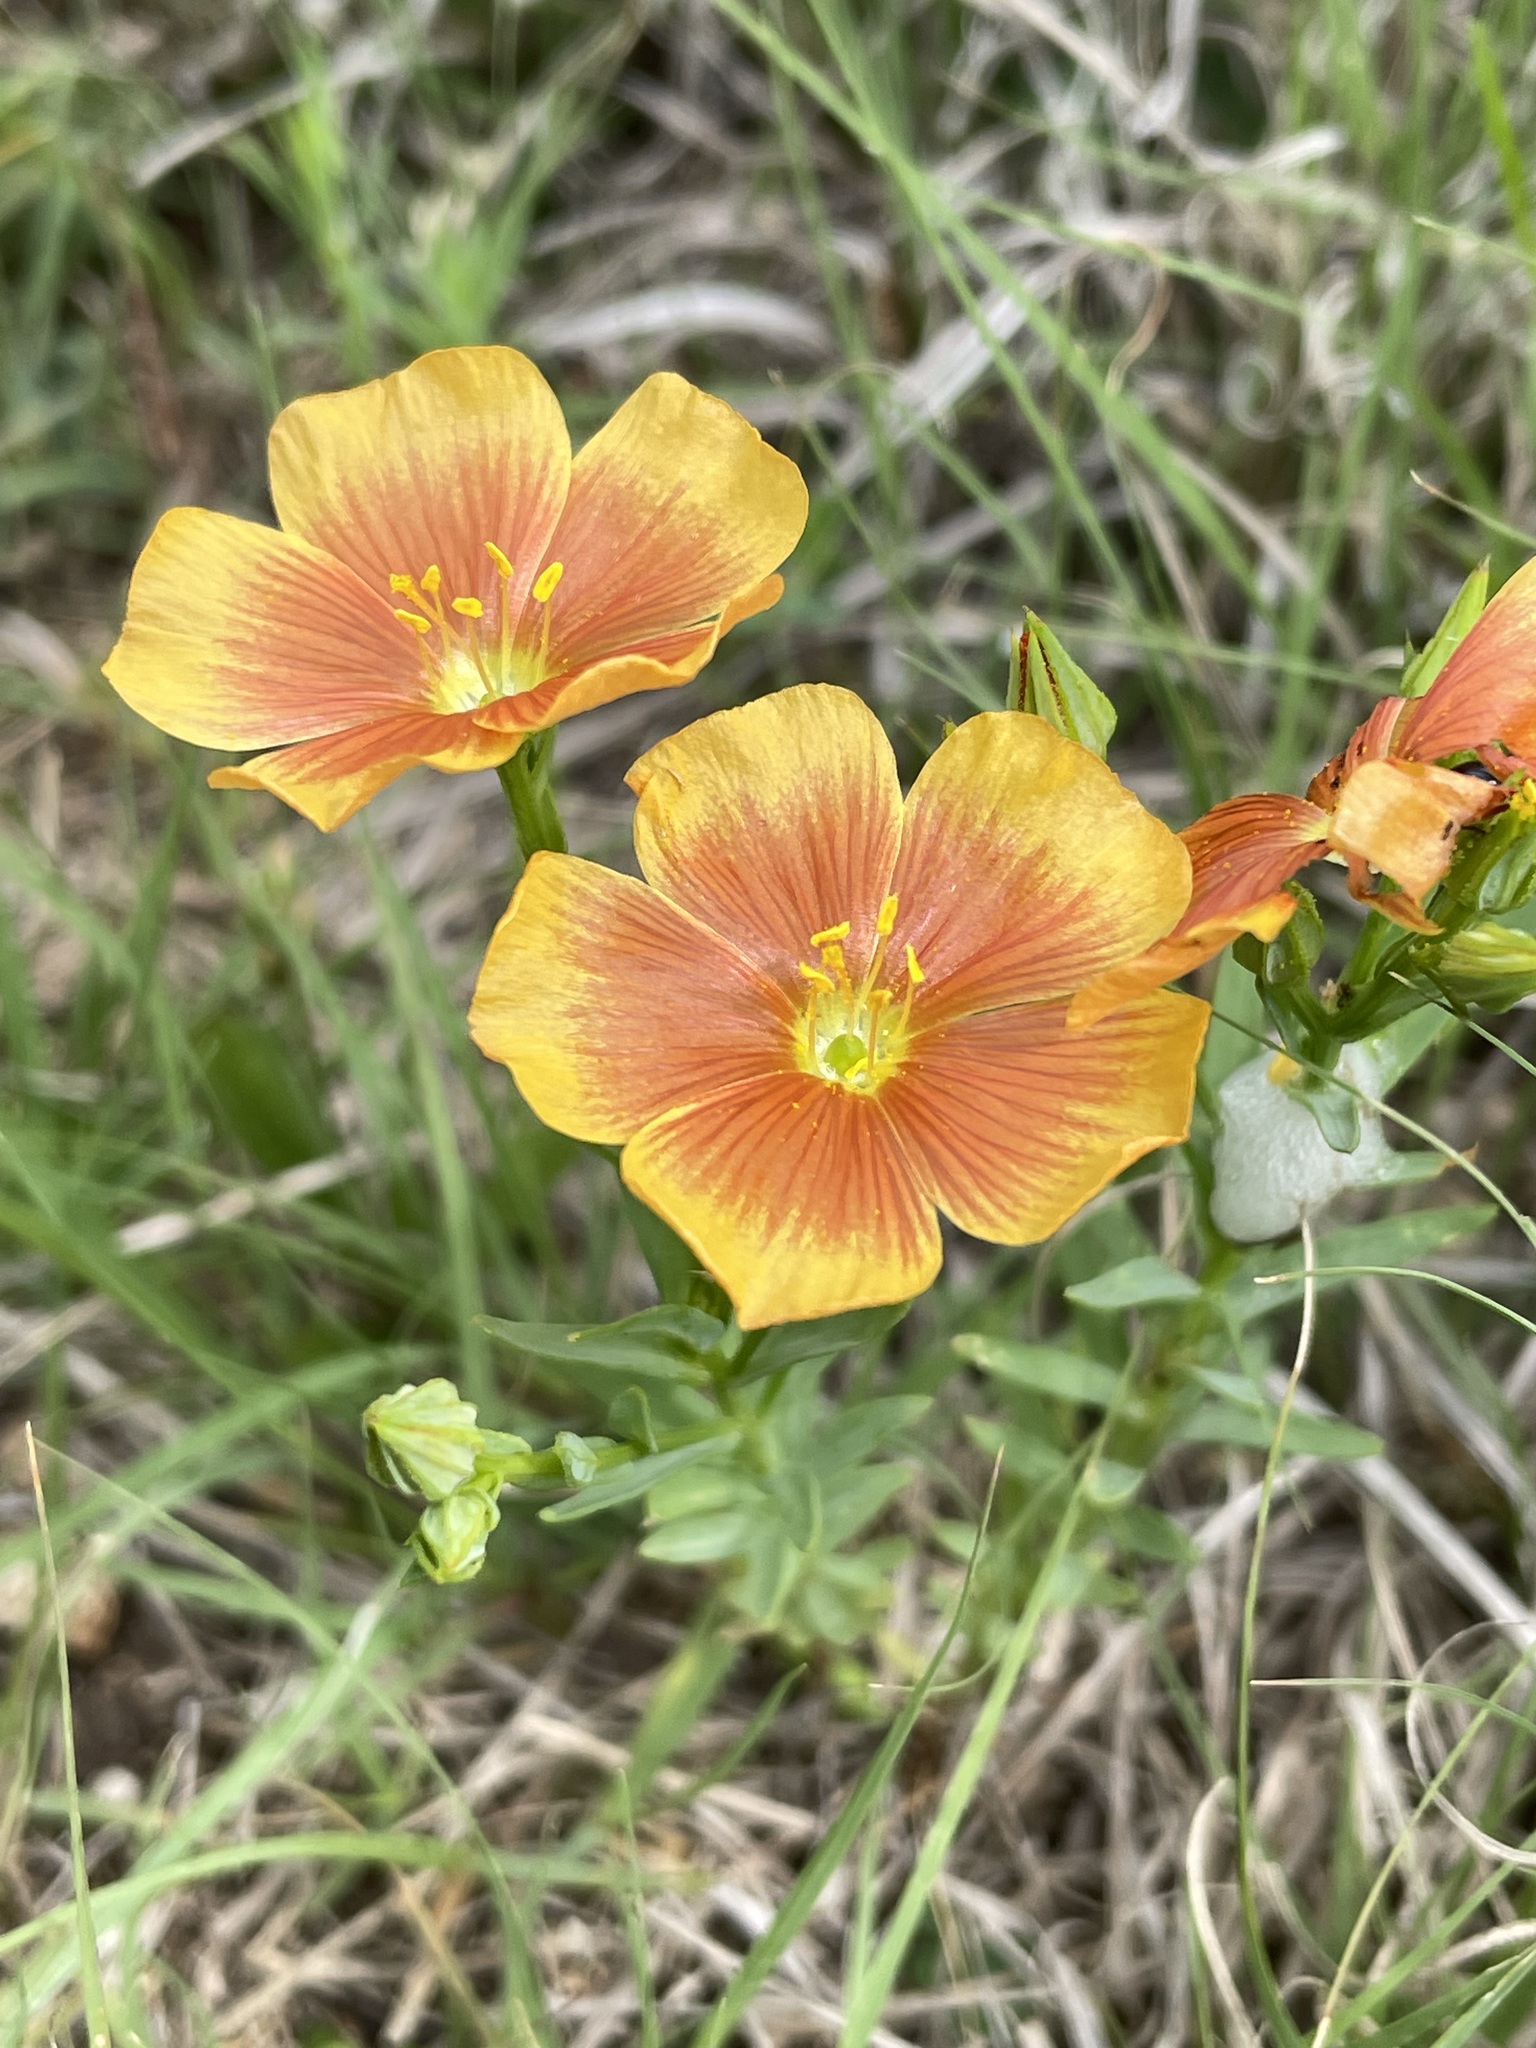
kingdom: Plantae
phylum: Tracheophyta
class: Magnoliopsida
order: Malpighiales
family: Linaceae
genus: Linum
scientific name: Linum rigidum
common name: Stiff-stem flax
